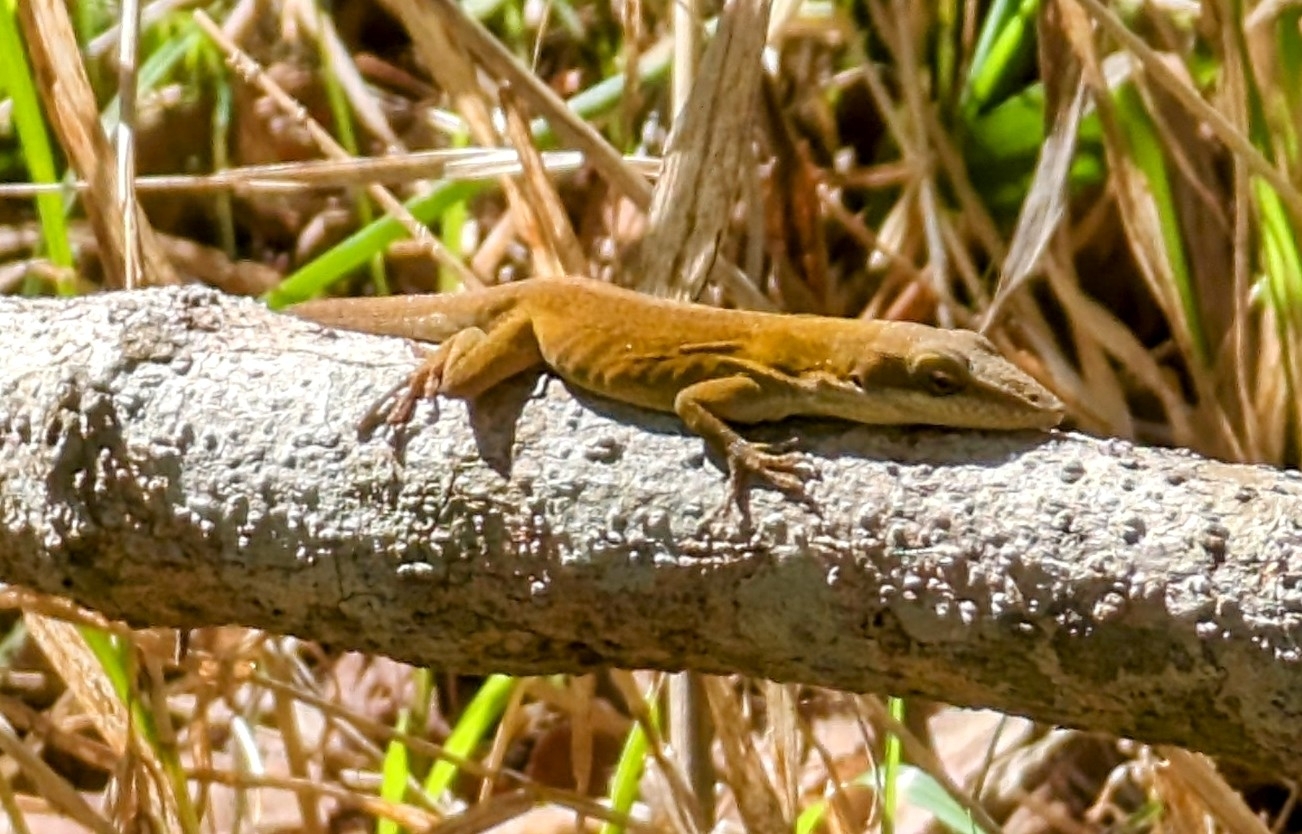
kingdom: Animalia
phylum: Chordata
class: Squamata
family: Dactyloidae
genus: Anolis
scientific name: Anolis carolinensis
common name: Green anole
